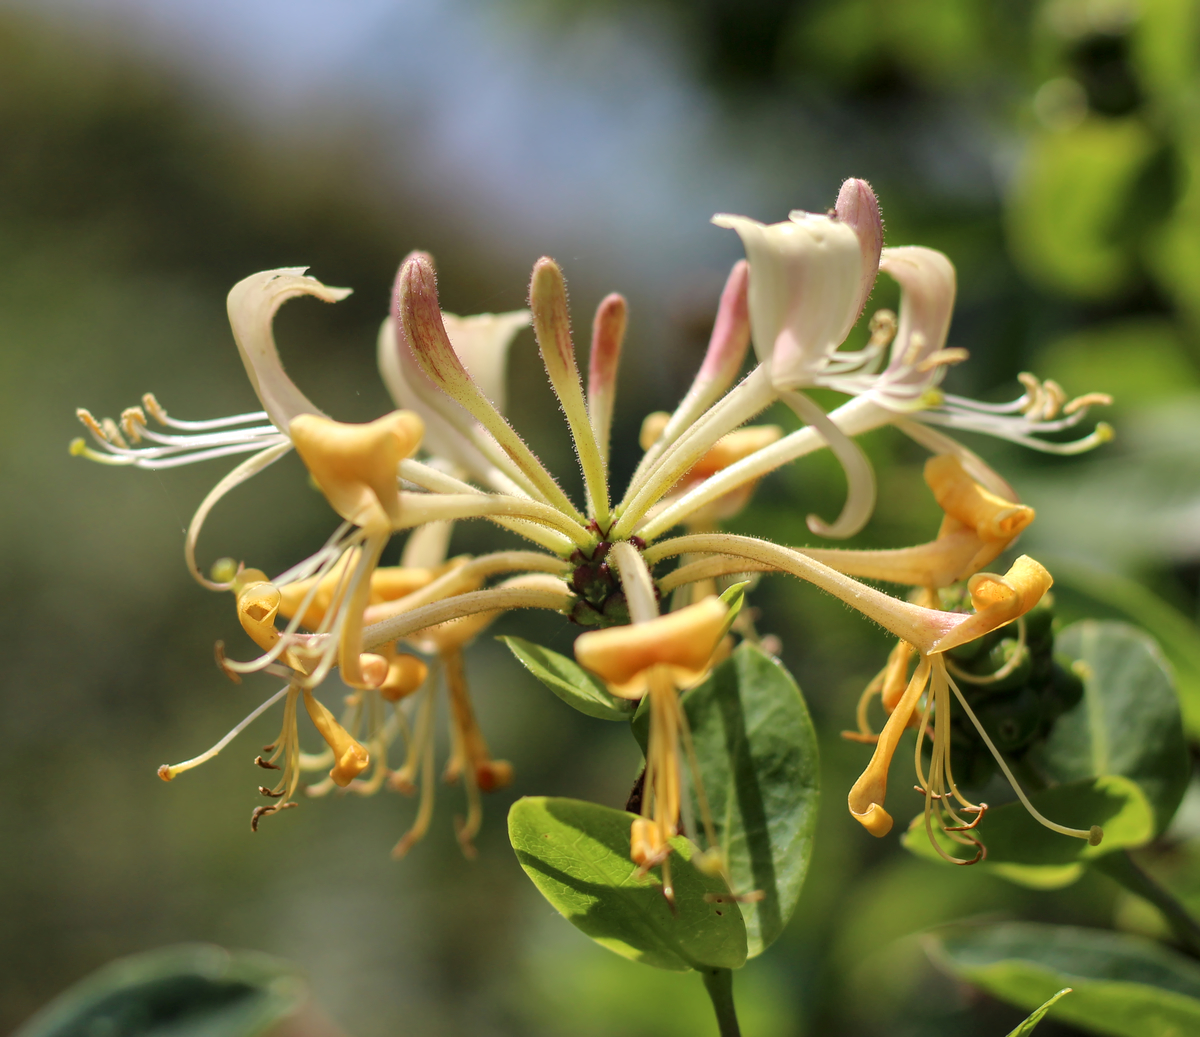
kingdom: Plantae
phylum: Tracheophyta
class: Magnoliopsida
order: Dipsacales
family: Caprifoliaceae
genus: Lonicera
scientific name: Lonicera periclymenum
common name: European honeysuckle
